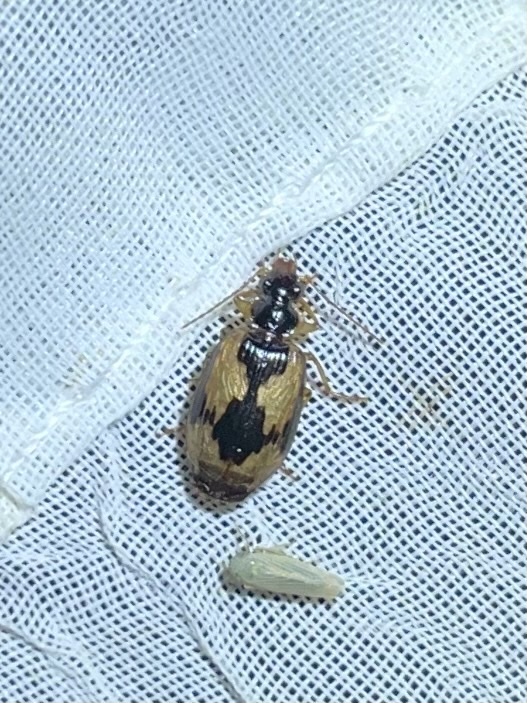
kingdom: Animalia
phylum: Arthropoda
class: Insecta
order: Coleoptera
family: Carabidae
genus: Lebia
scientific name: Lebia fuscata
